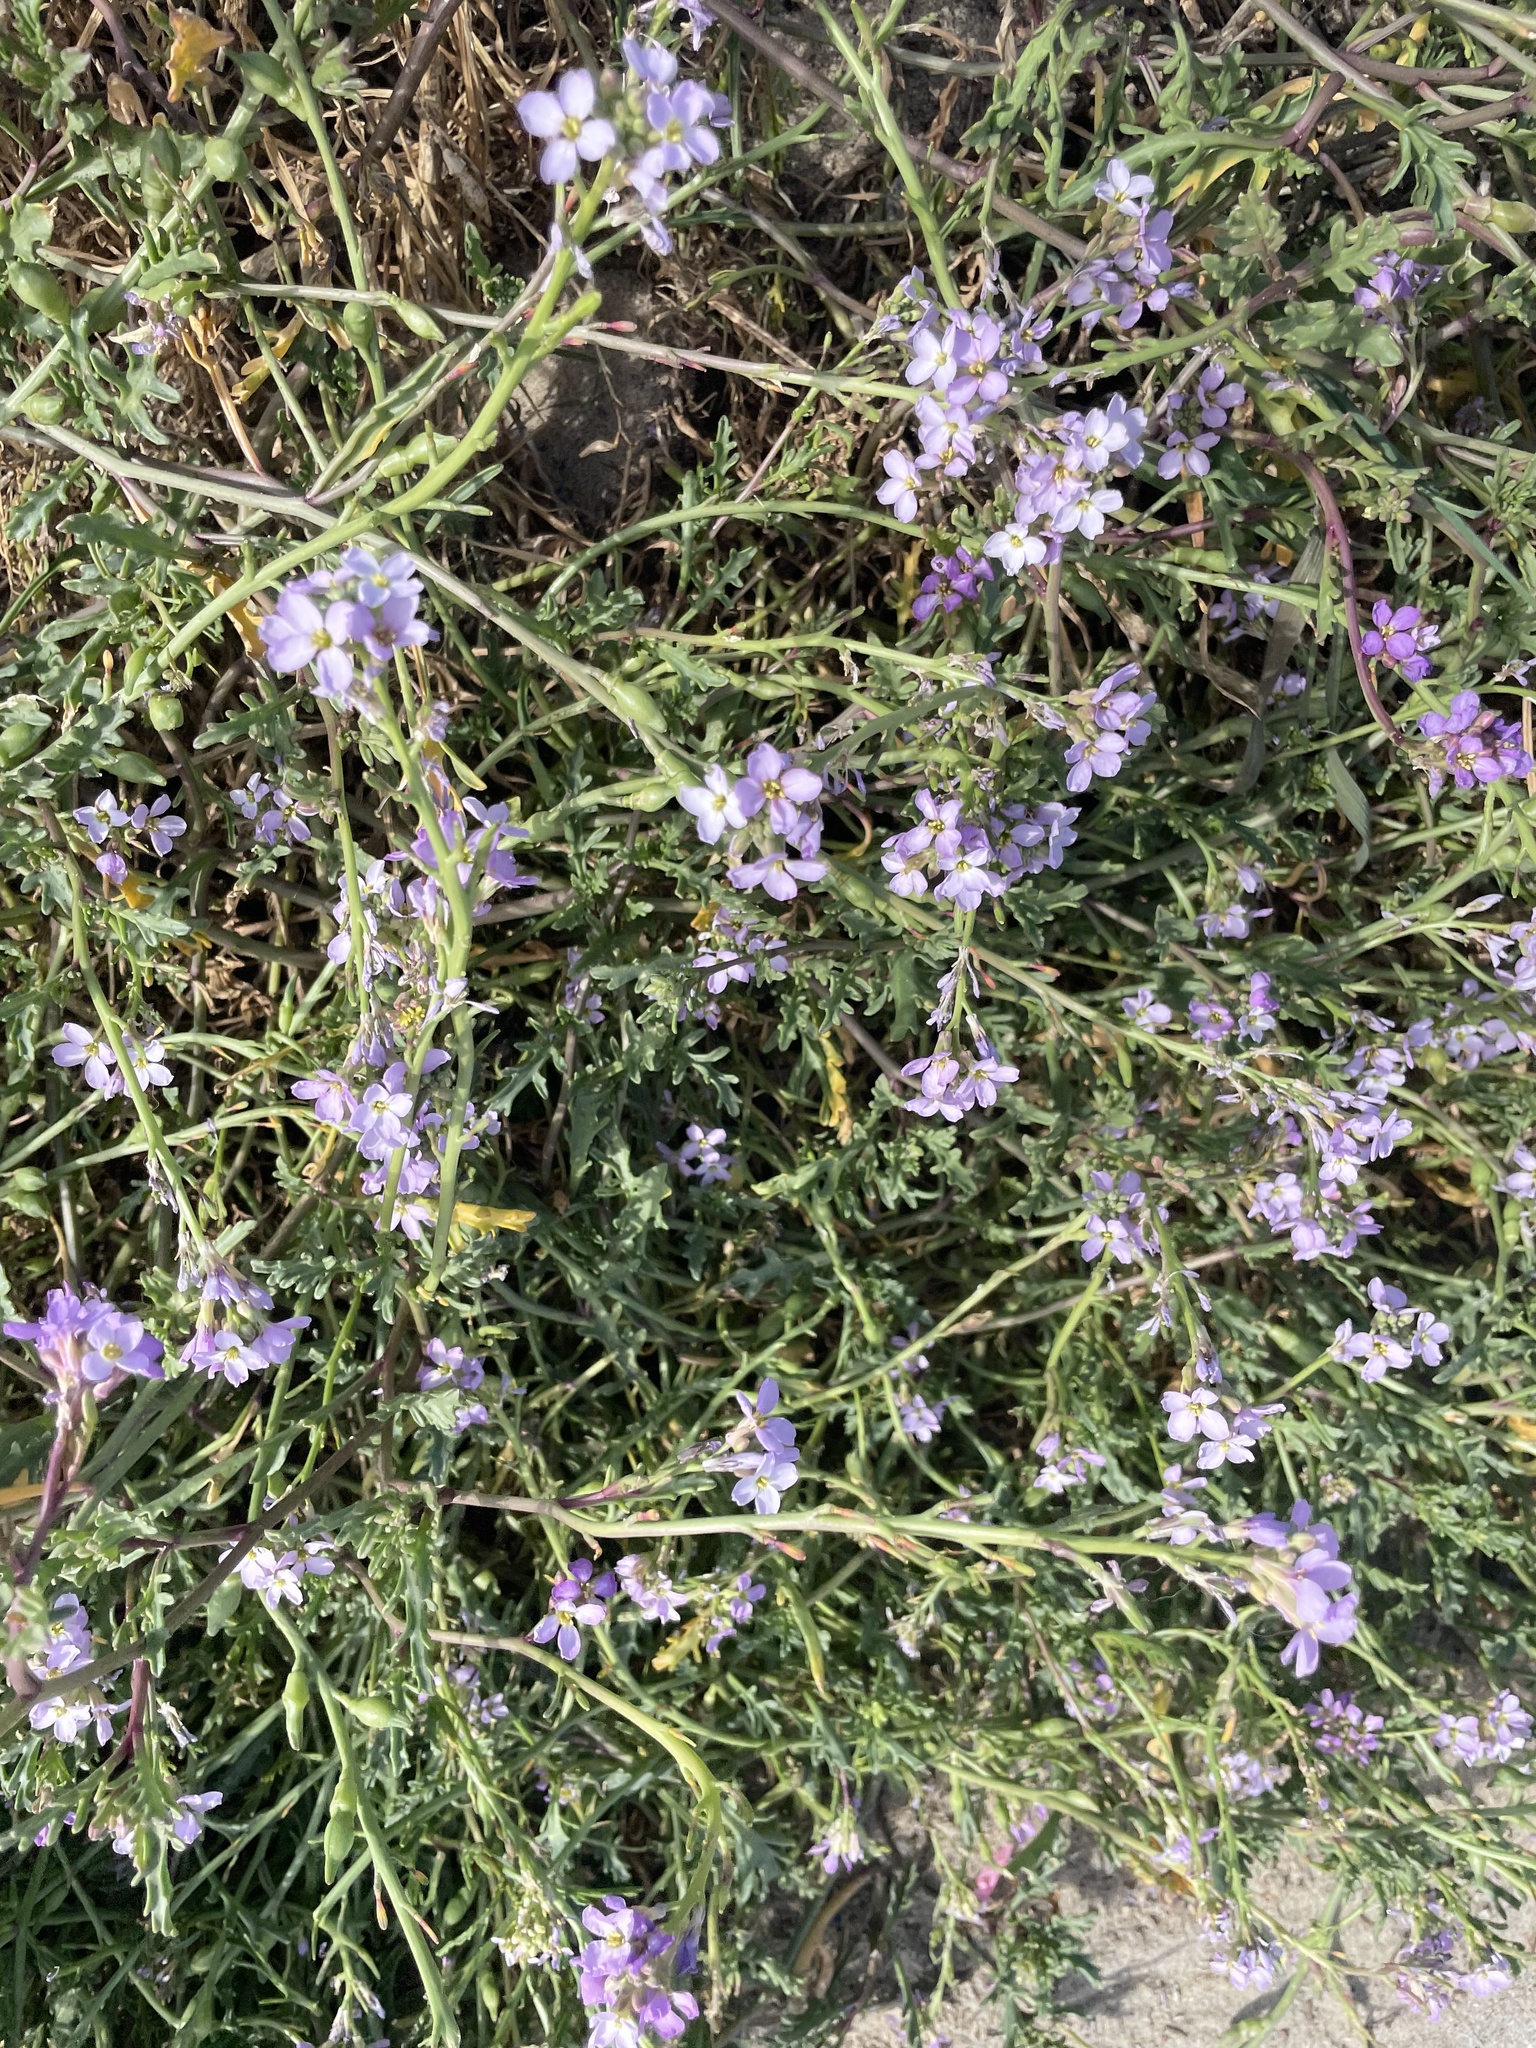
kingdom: Plantae
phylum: Tracheophyta
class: Magnoliopsida
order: Brassicales
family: Brassicaceae
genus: Cakile
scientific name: Cakile maritima
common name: Sea rocket
